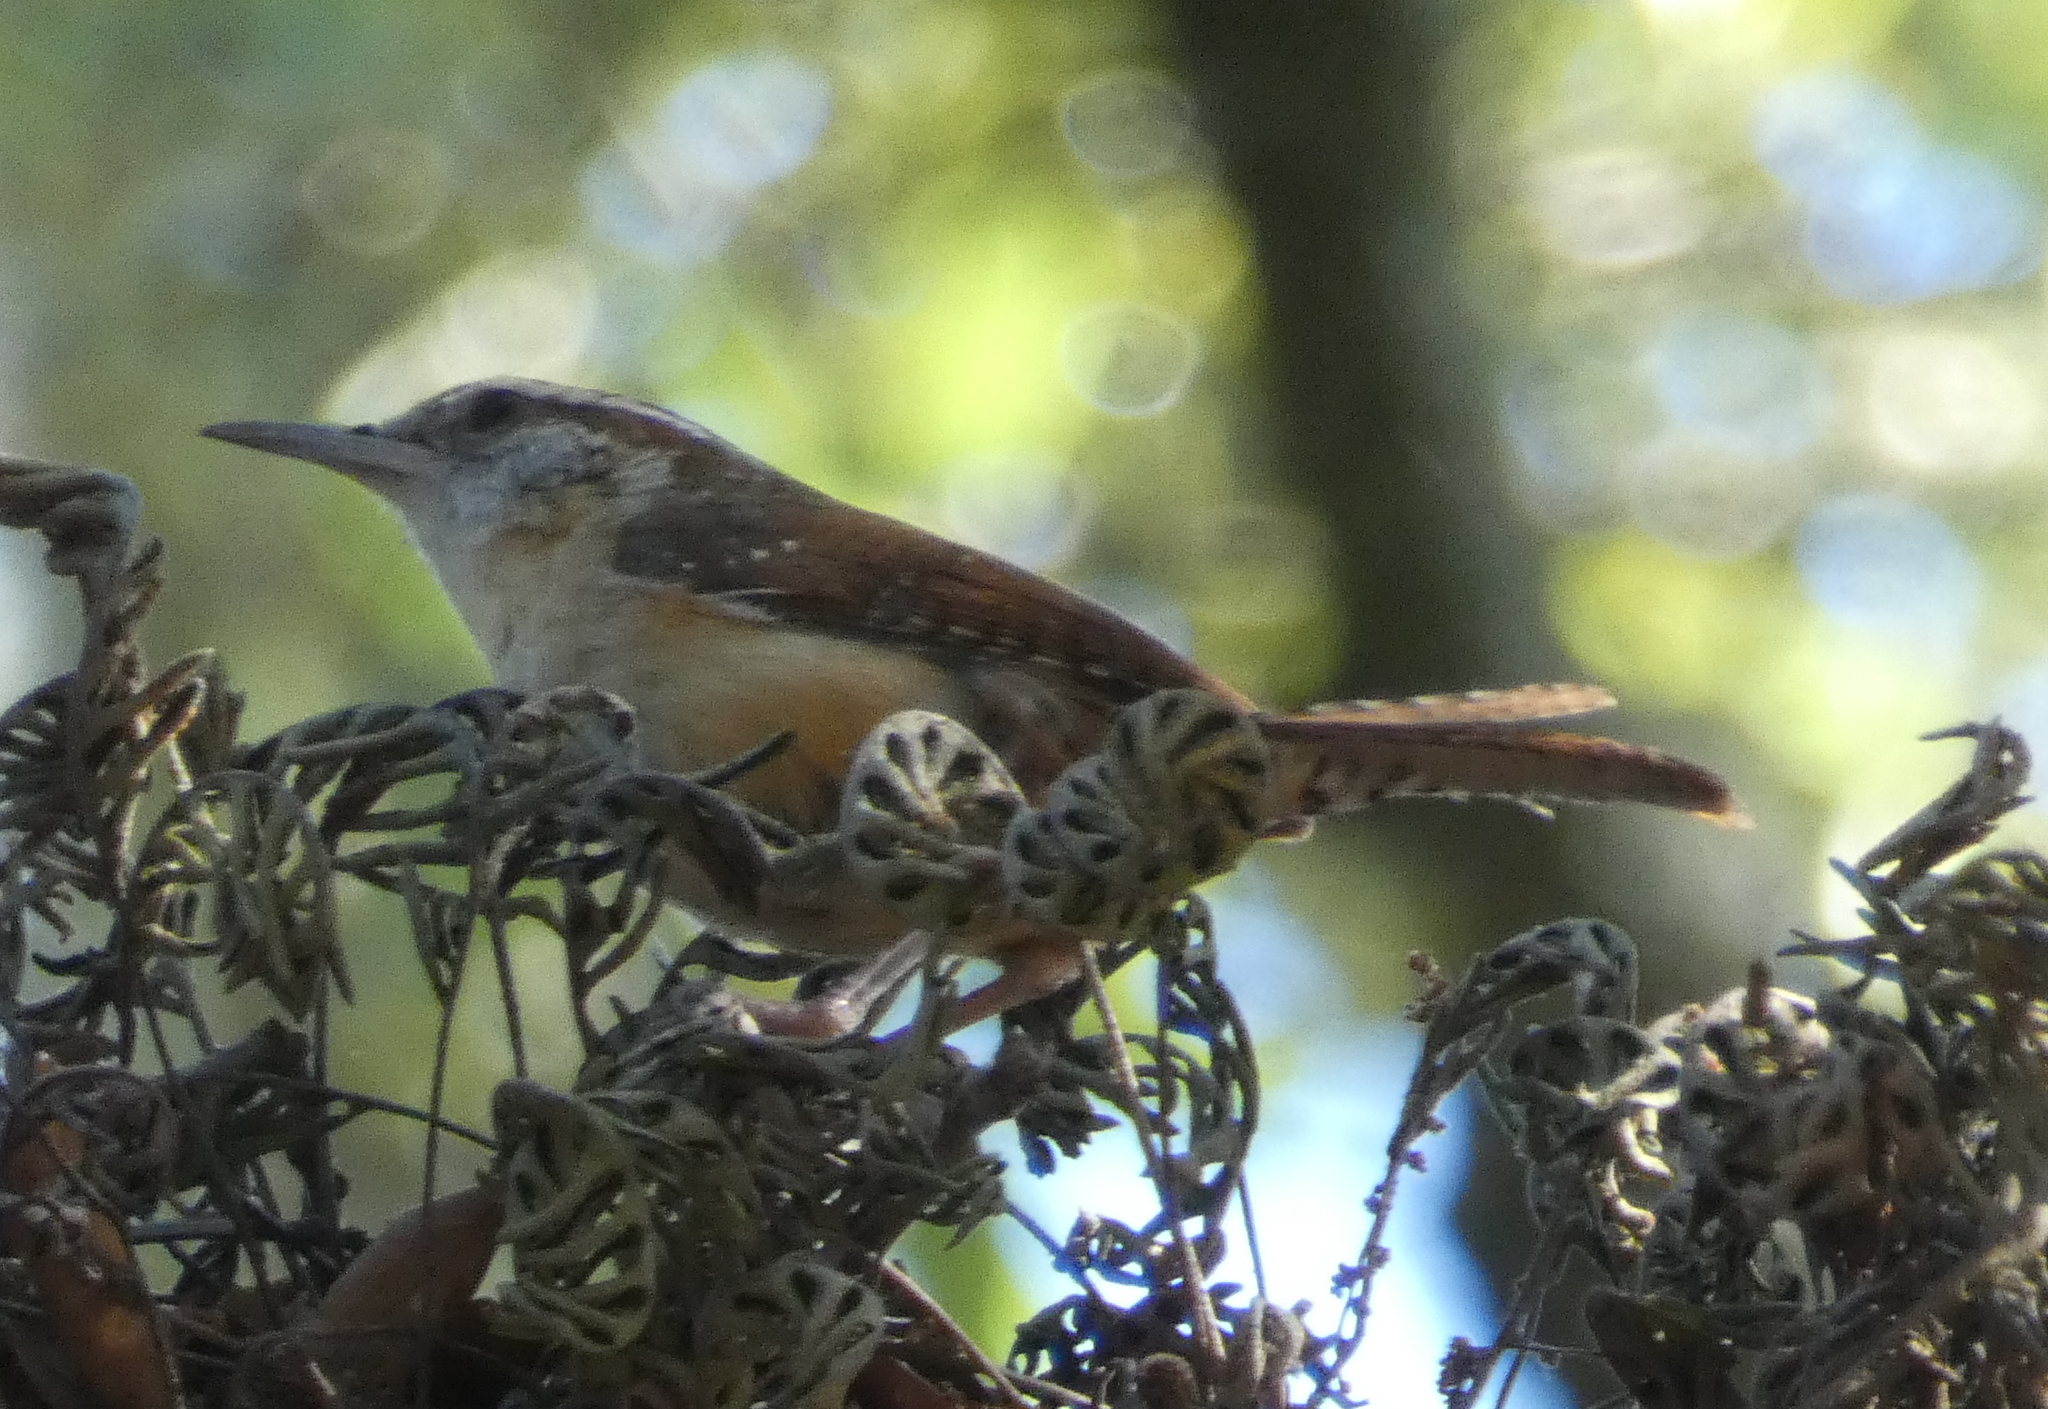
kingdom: Animalia
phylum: Chordata
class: Aves
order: Passeriformes
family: Troglodytidae
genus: Thryothorus
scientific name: Thryothorus ludovicianus
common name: Carolina wren
